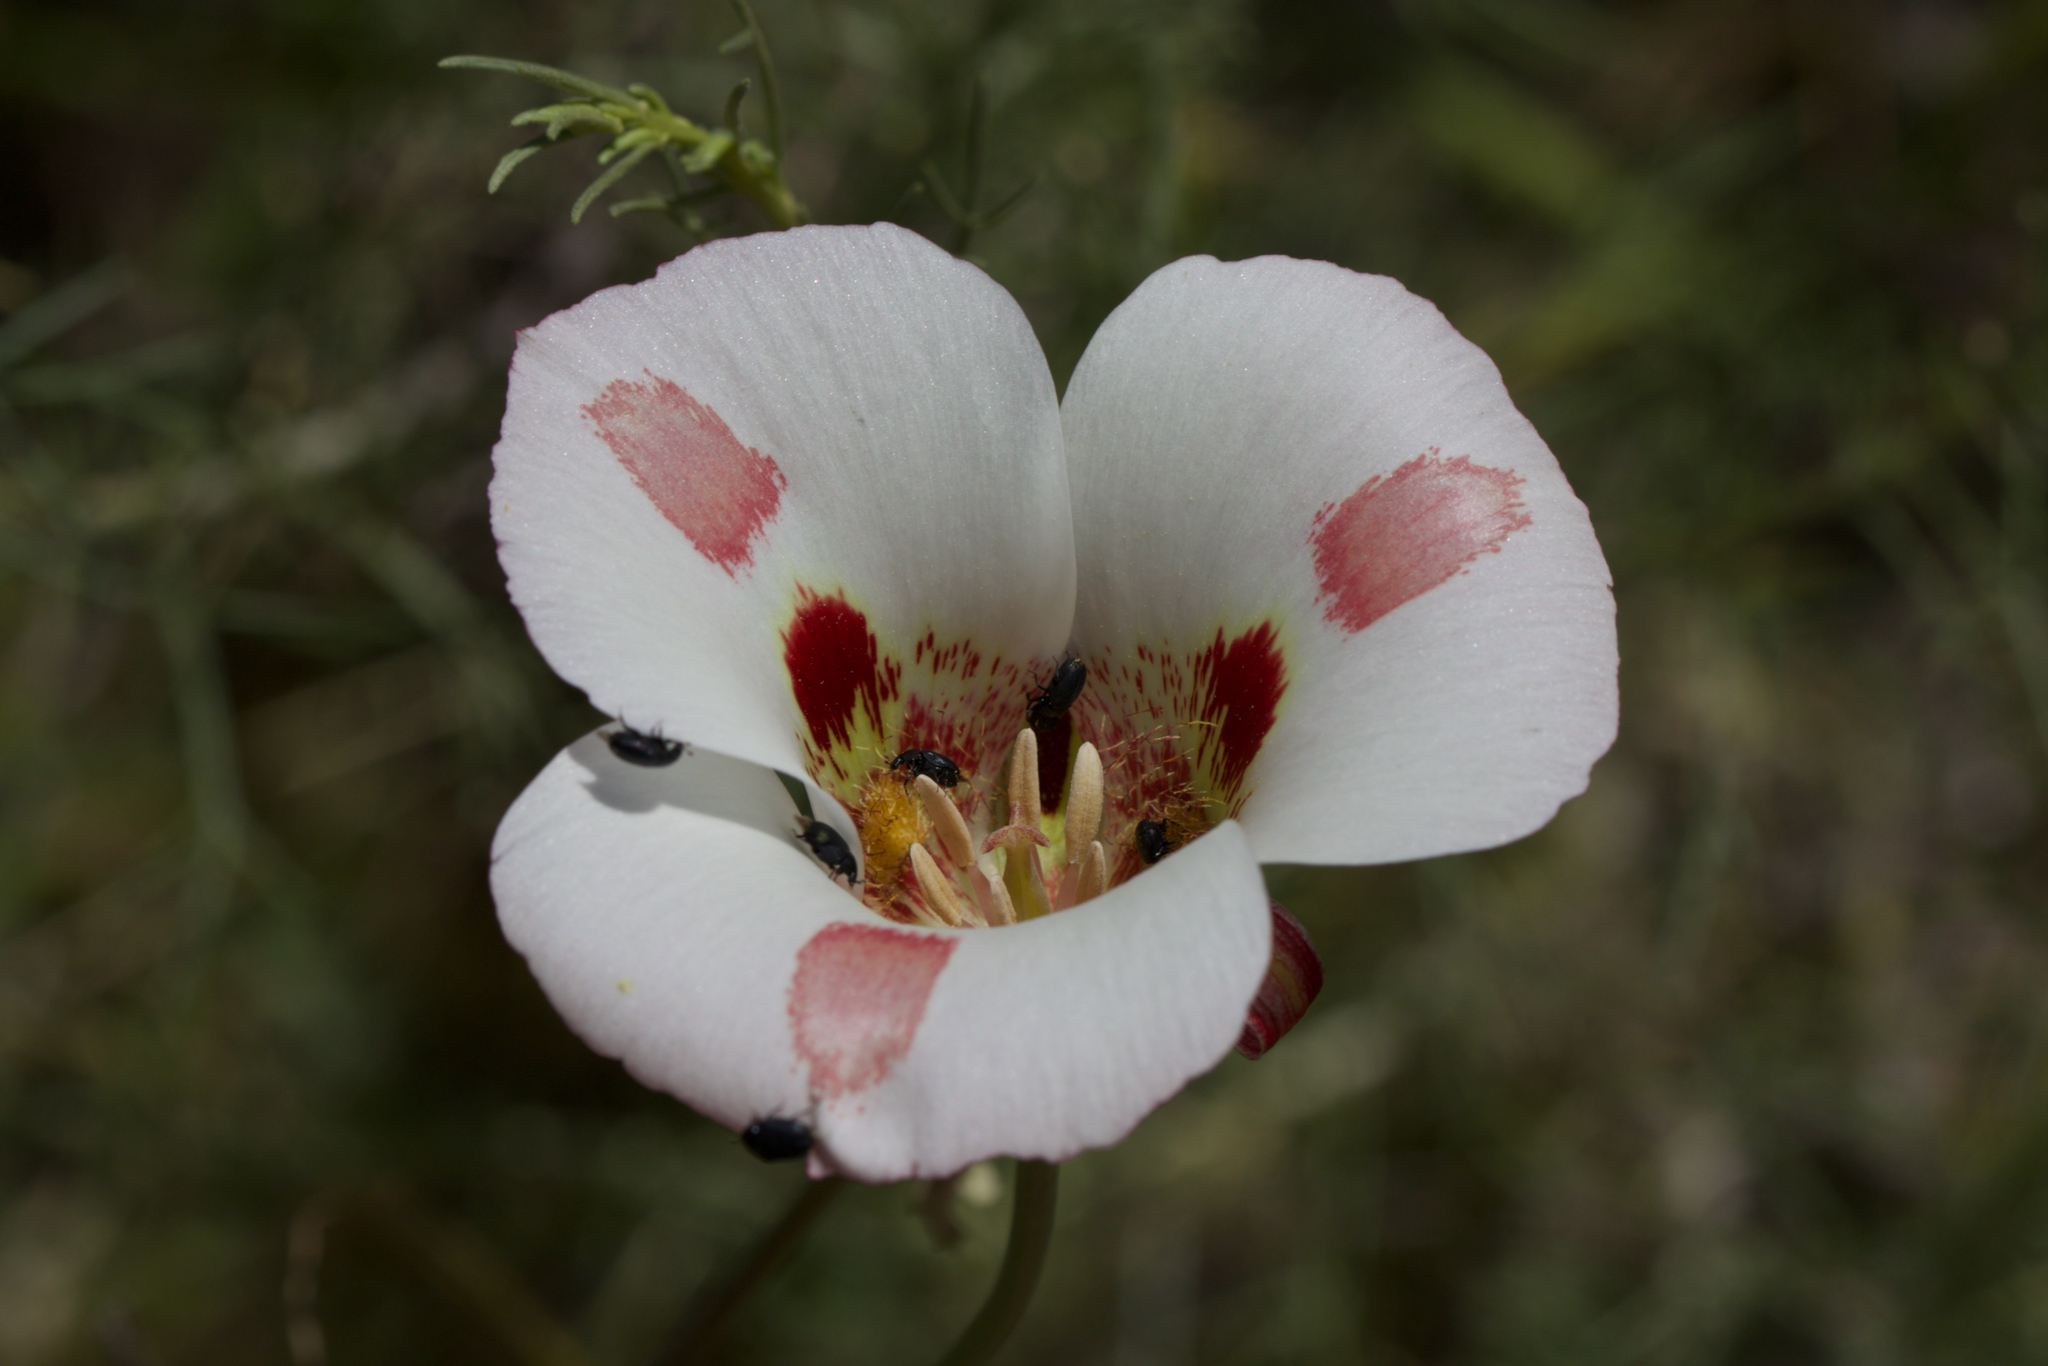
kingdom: Plantae
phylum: Tracheophyta
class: Liliopsida
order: Liliales
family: Liliaceae
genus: Calochortus
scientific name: Calochortus venustus
